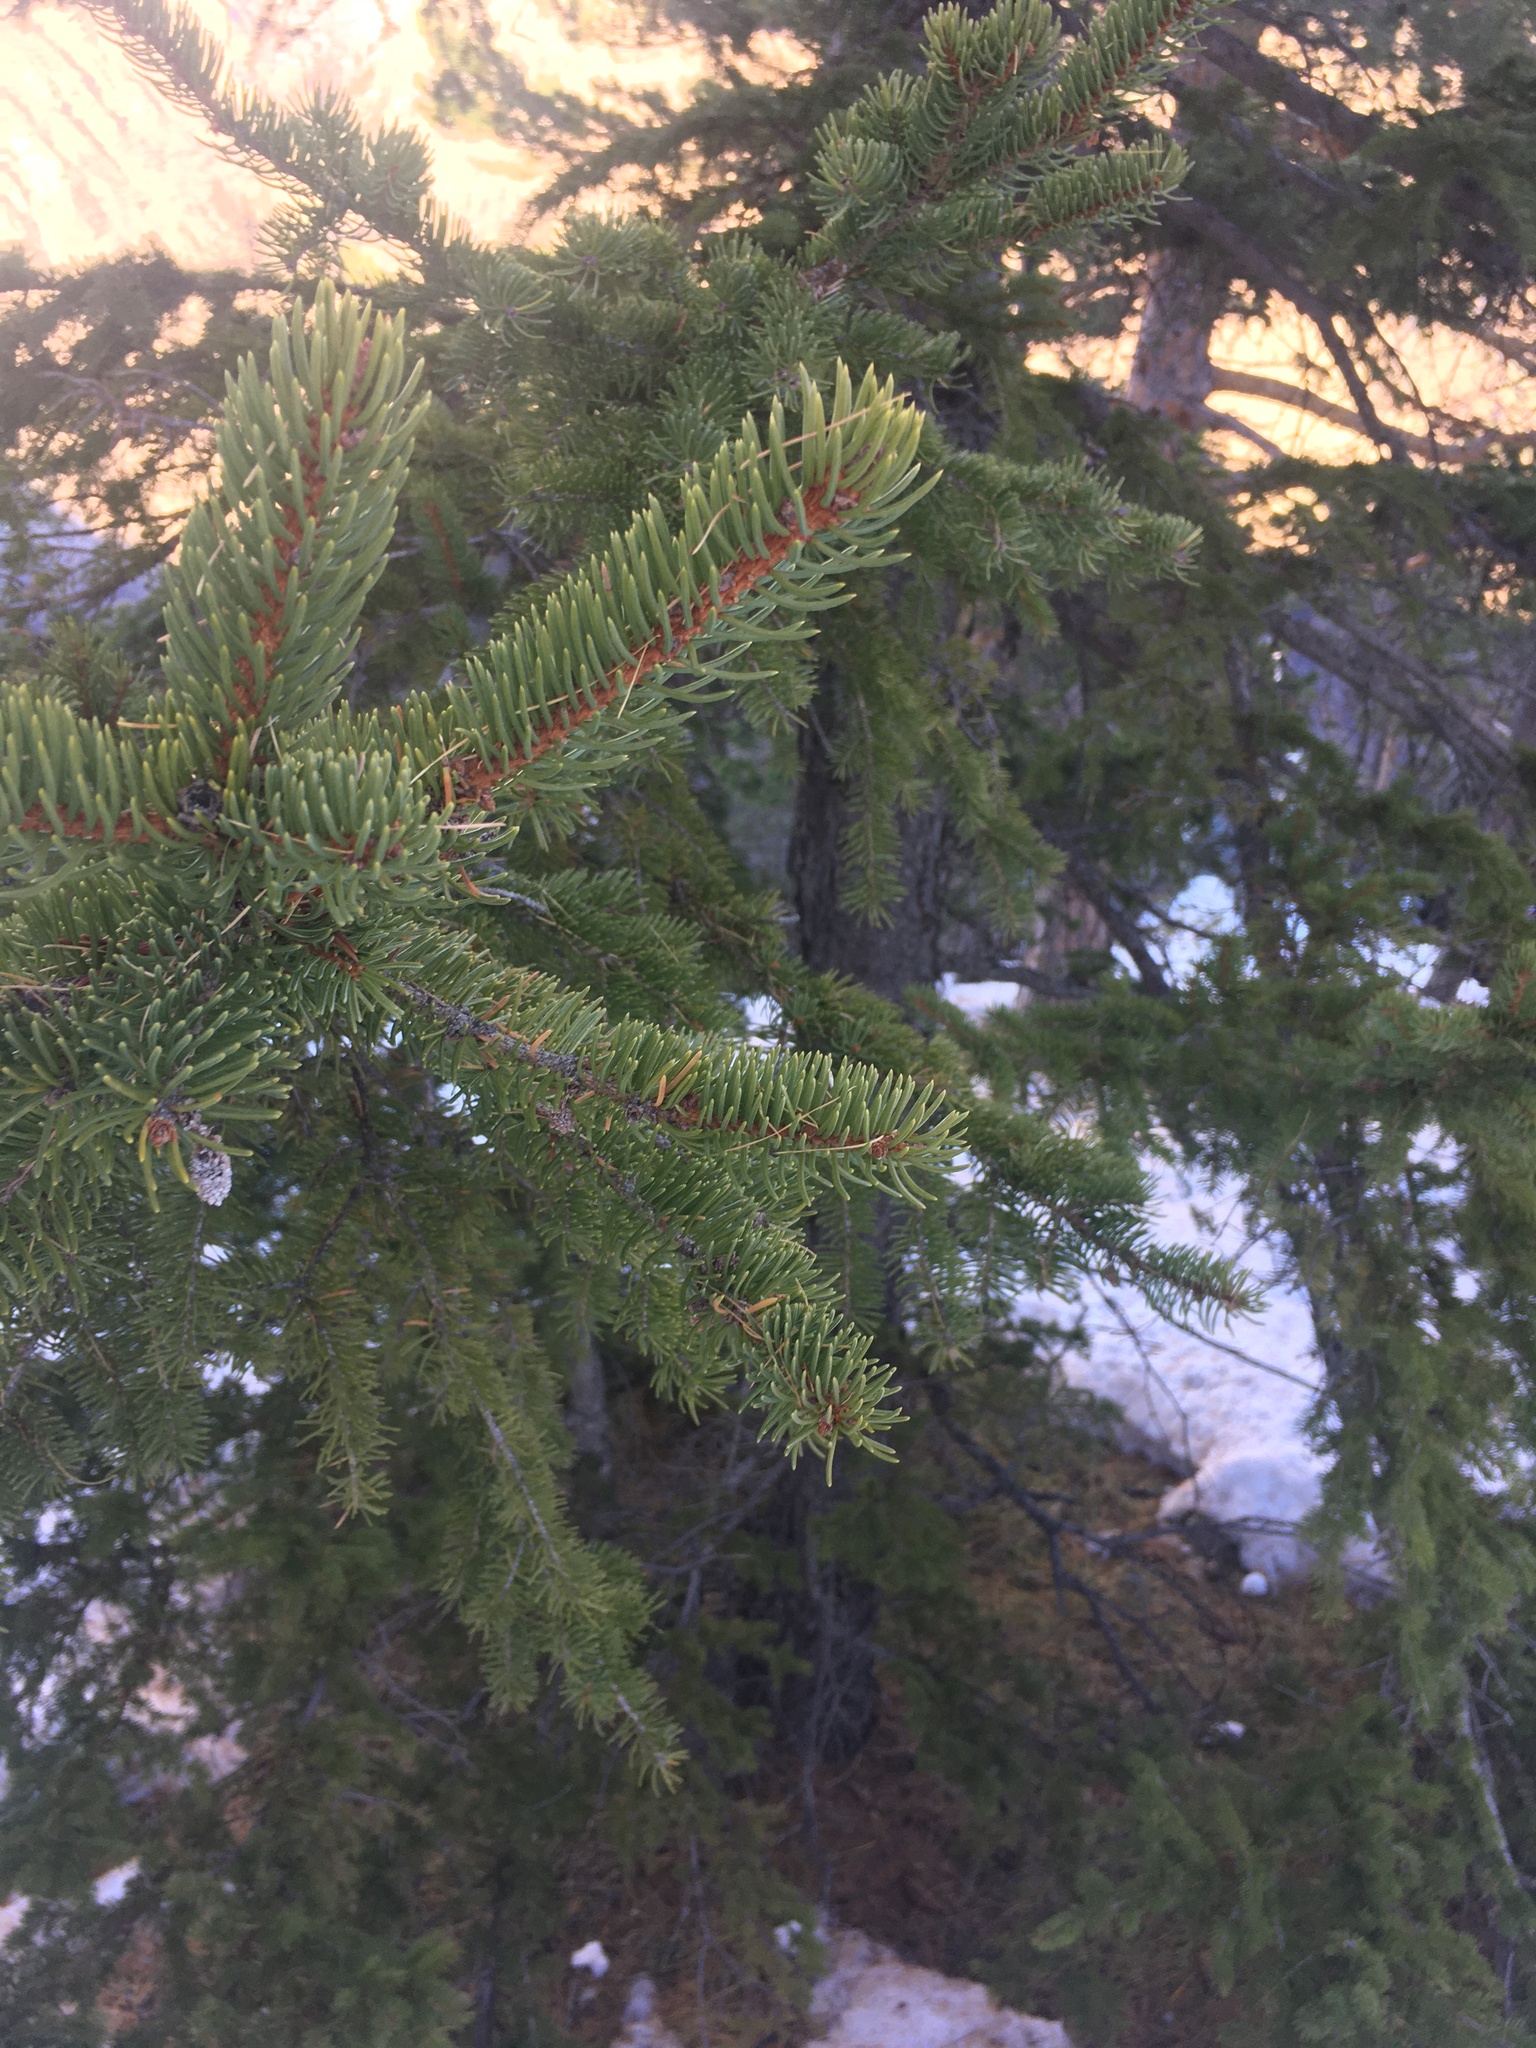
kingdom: Plantae
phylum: Tracheophyta
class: Pinopsida
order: Pinales
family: Pinaceae
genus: Picea
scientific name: Picea abies
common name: Norway spruce
